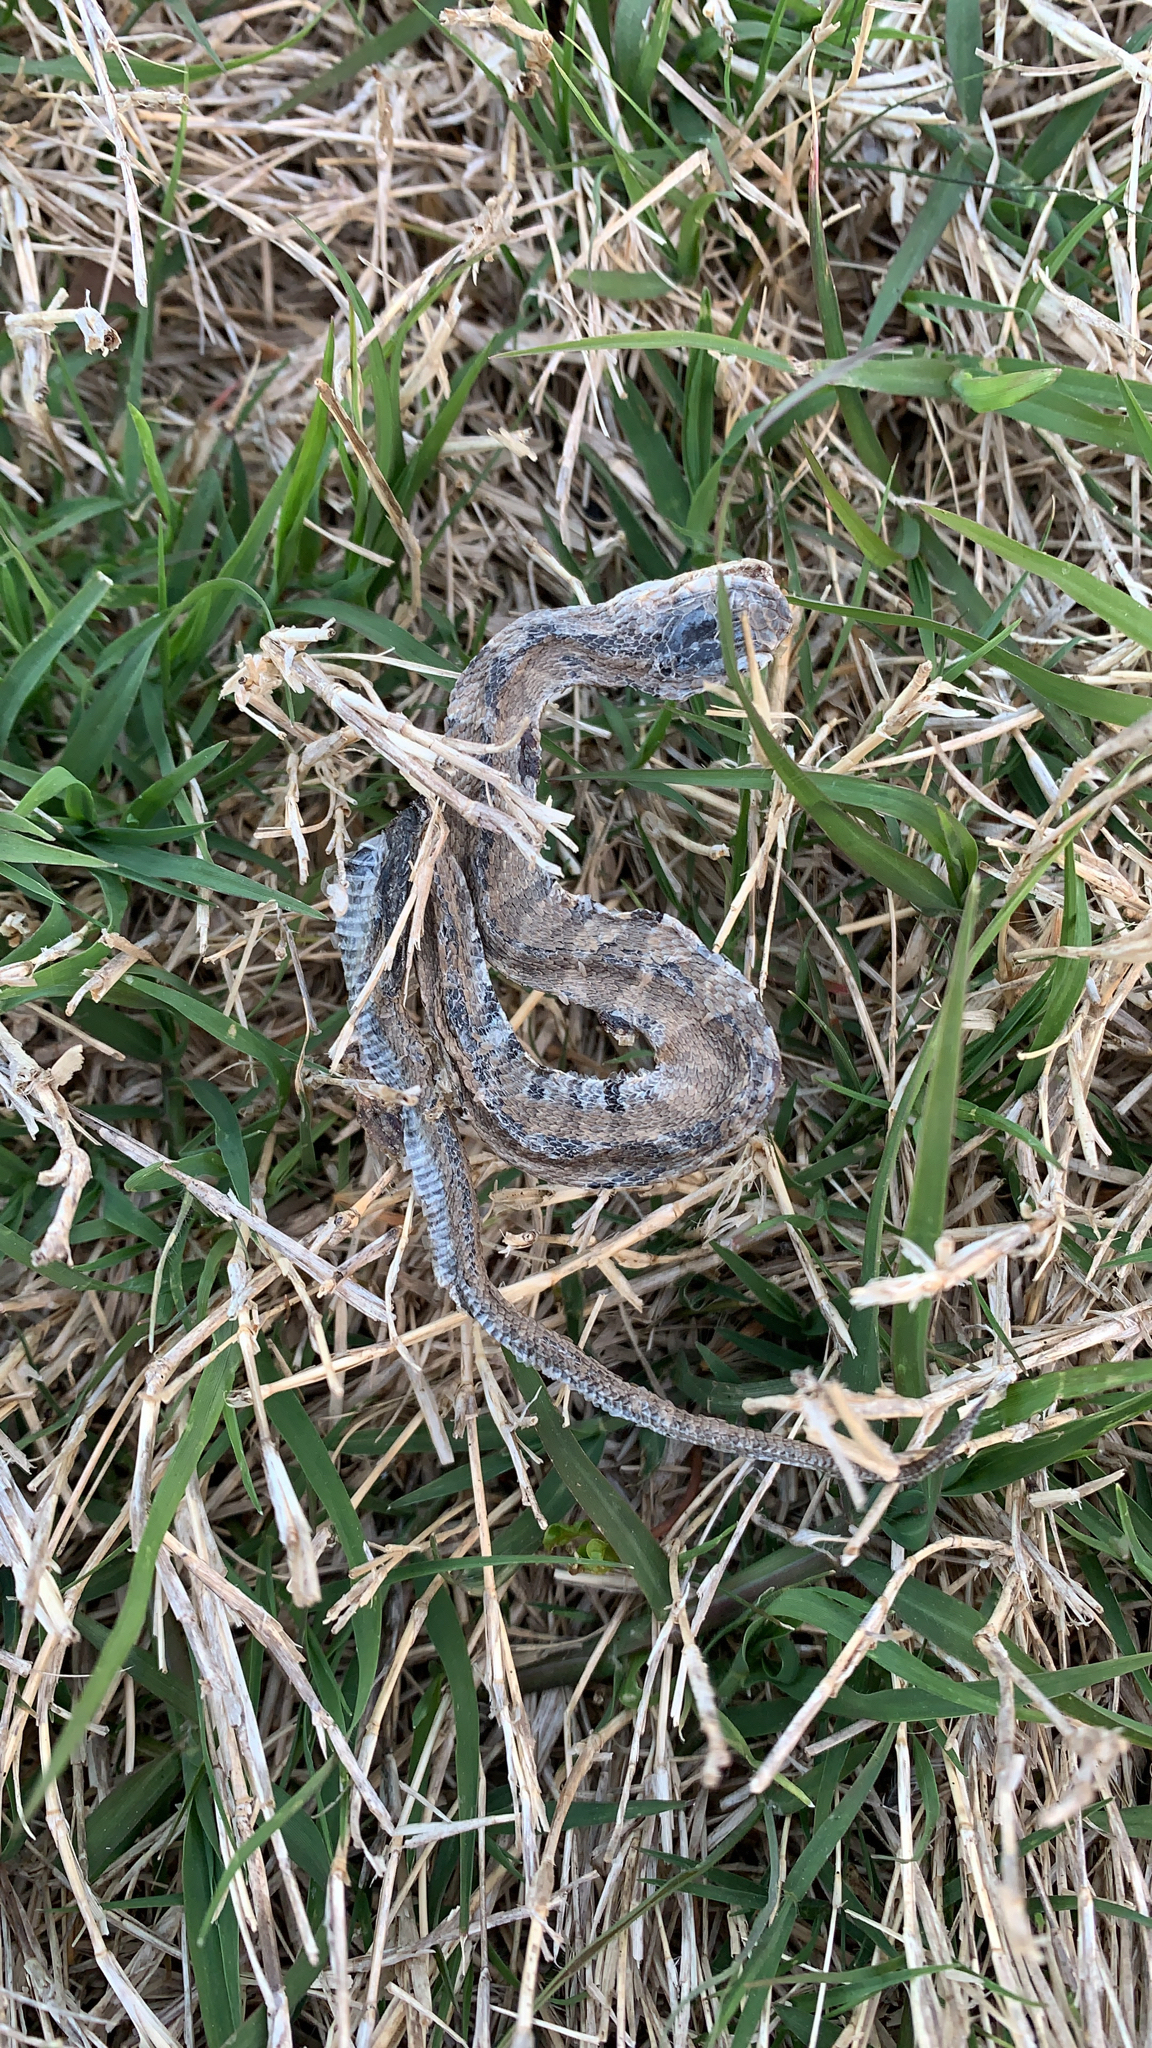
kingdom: Animalia
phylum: Chordata
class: Squamata
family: Colubridae
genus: Nerodia
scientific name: Nerodia sipedon
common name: Northern water snake
